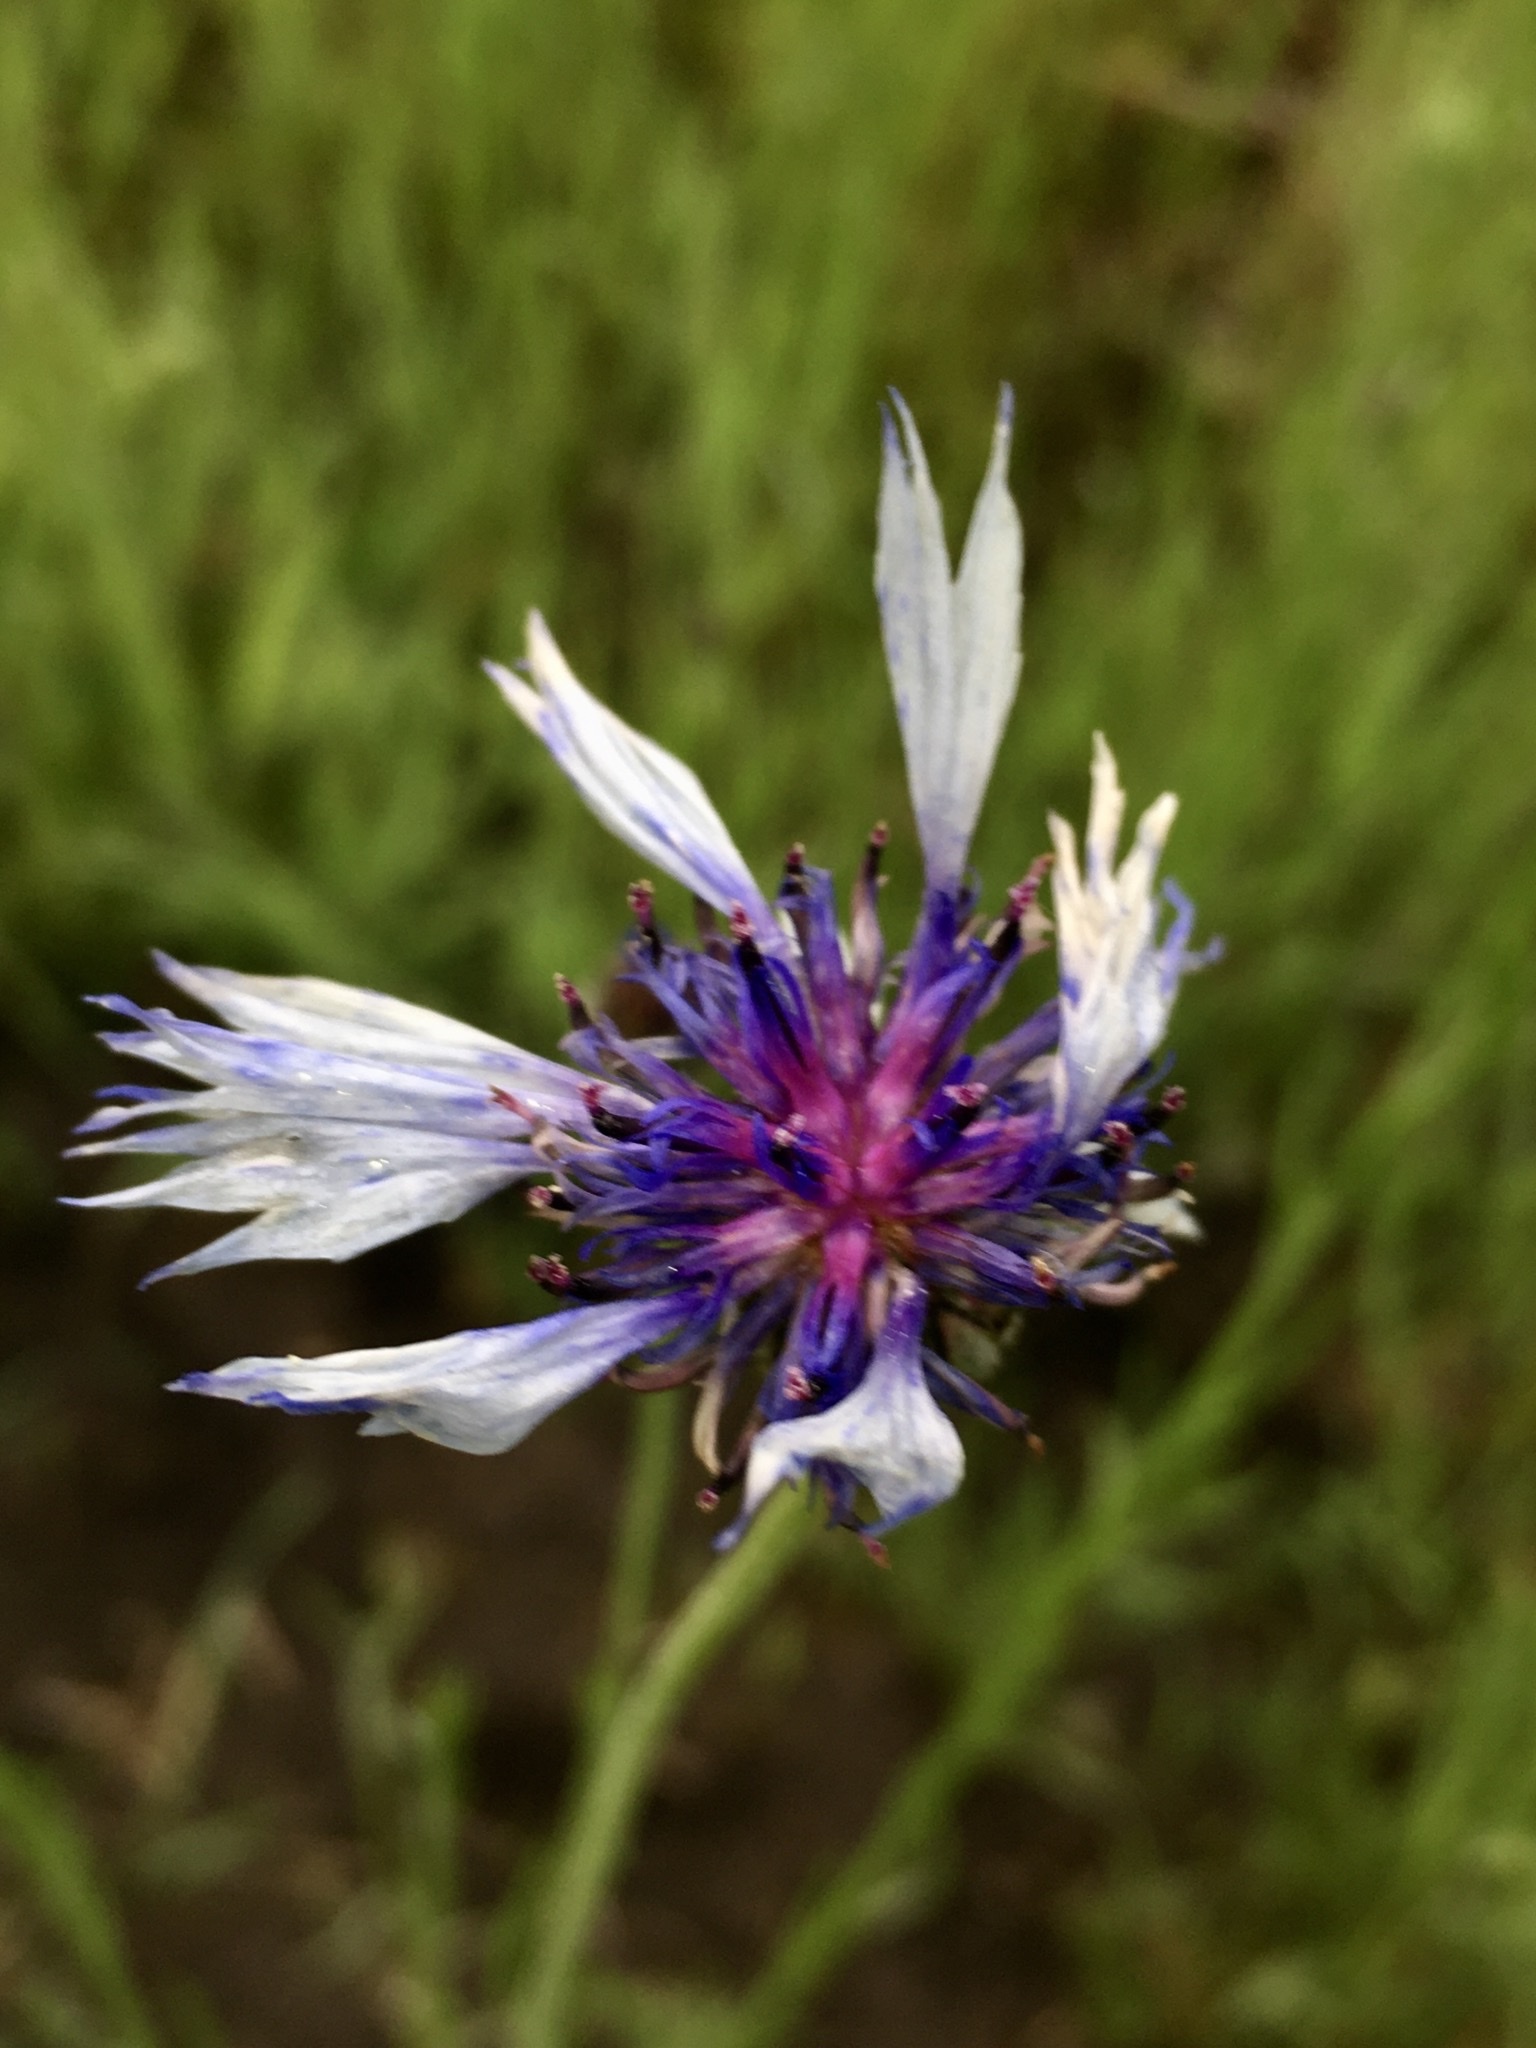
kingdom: Plantae
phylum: Tracheophyta
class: Magnoliopsida
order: Asterales
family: Asteraceae
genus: Centaurea
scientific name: Centaurea cyanus
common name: Cornflower
